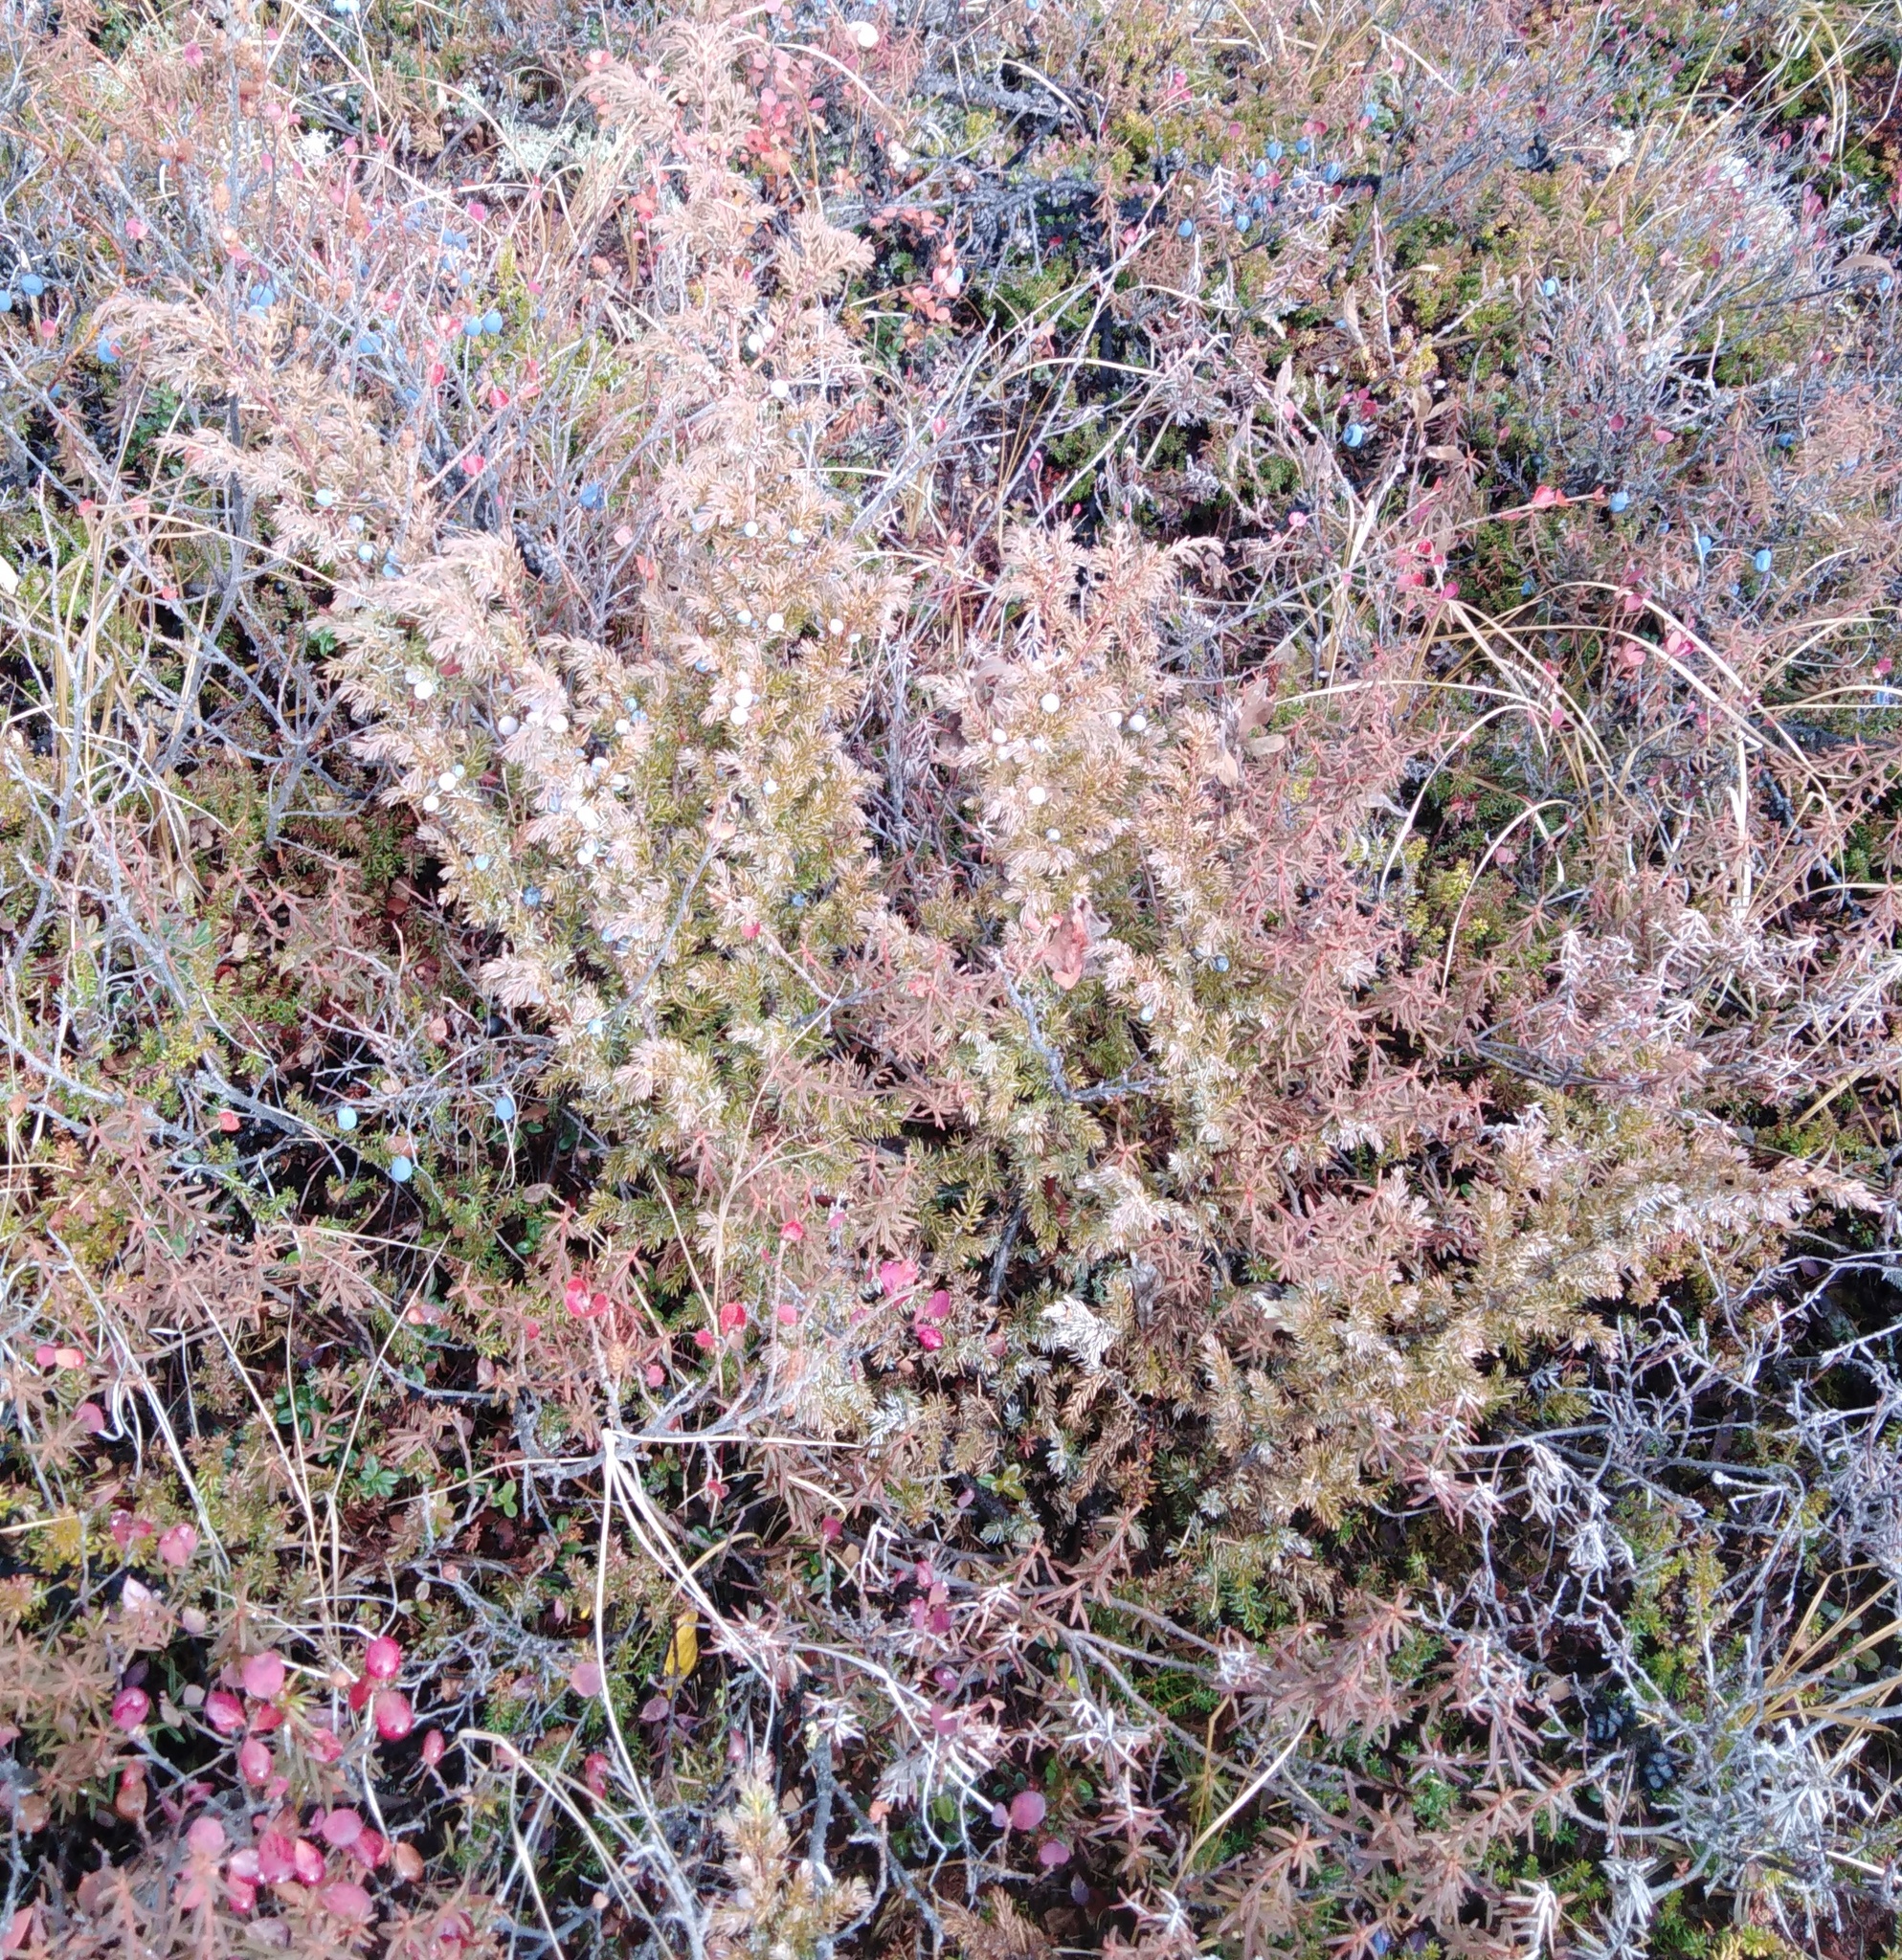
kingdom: Plantae
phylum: Tracheophyta
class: Pinopsida
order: Pinales
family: Cupressaceae
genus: Juniperus
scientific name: Juniperus communis
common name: Common juniper
